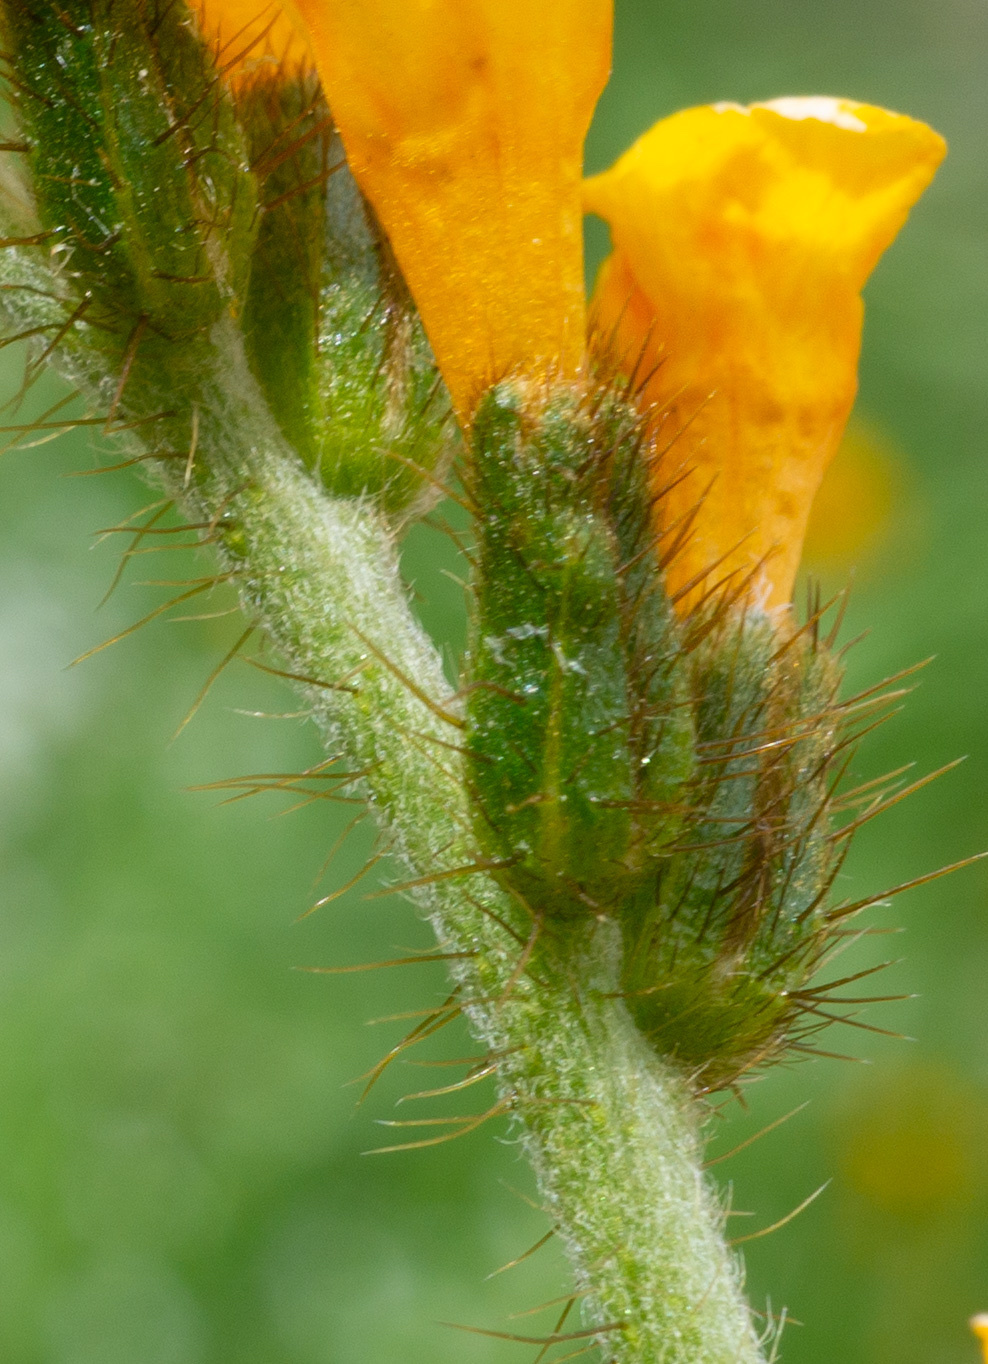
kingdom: Plantae
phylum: Tracheophyta
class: Magnoliopsida
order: Boraginales
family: Boraginaceae
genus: Amsinckia
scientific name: Amsinckia douglasiana
